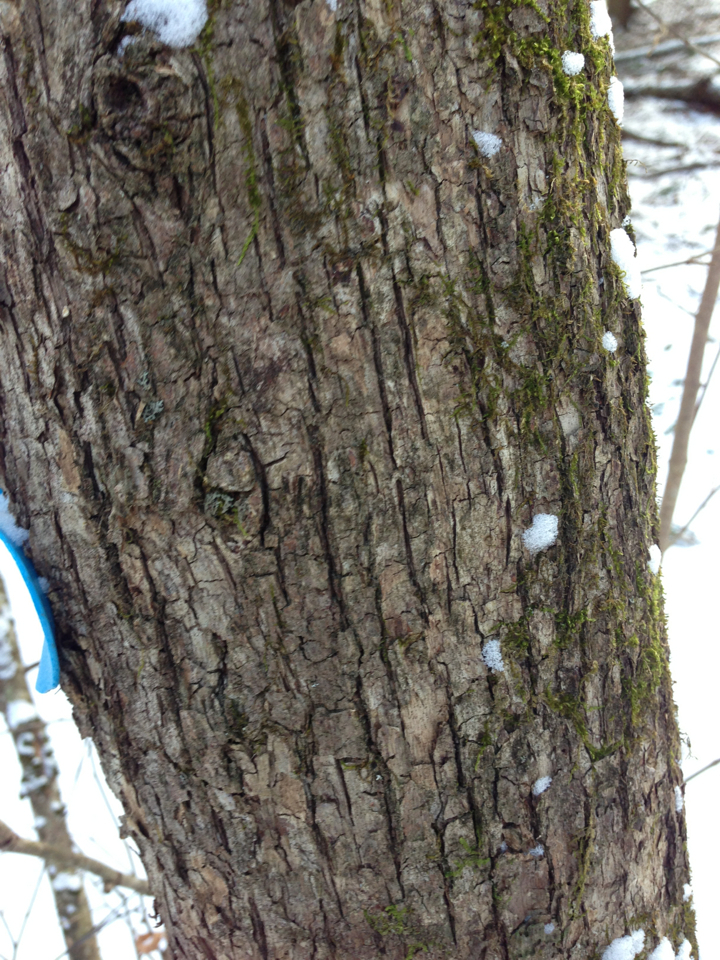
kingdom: Plantae
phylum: Tracheophyta
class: Magnoliopsida
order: Fagales
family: Betulaceae
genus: Ostrya
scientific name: Ostrya virginiana
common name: Ironwood
